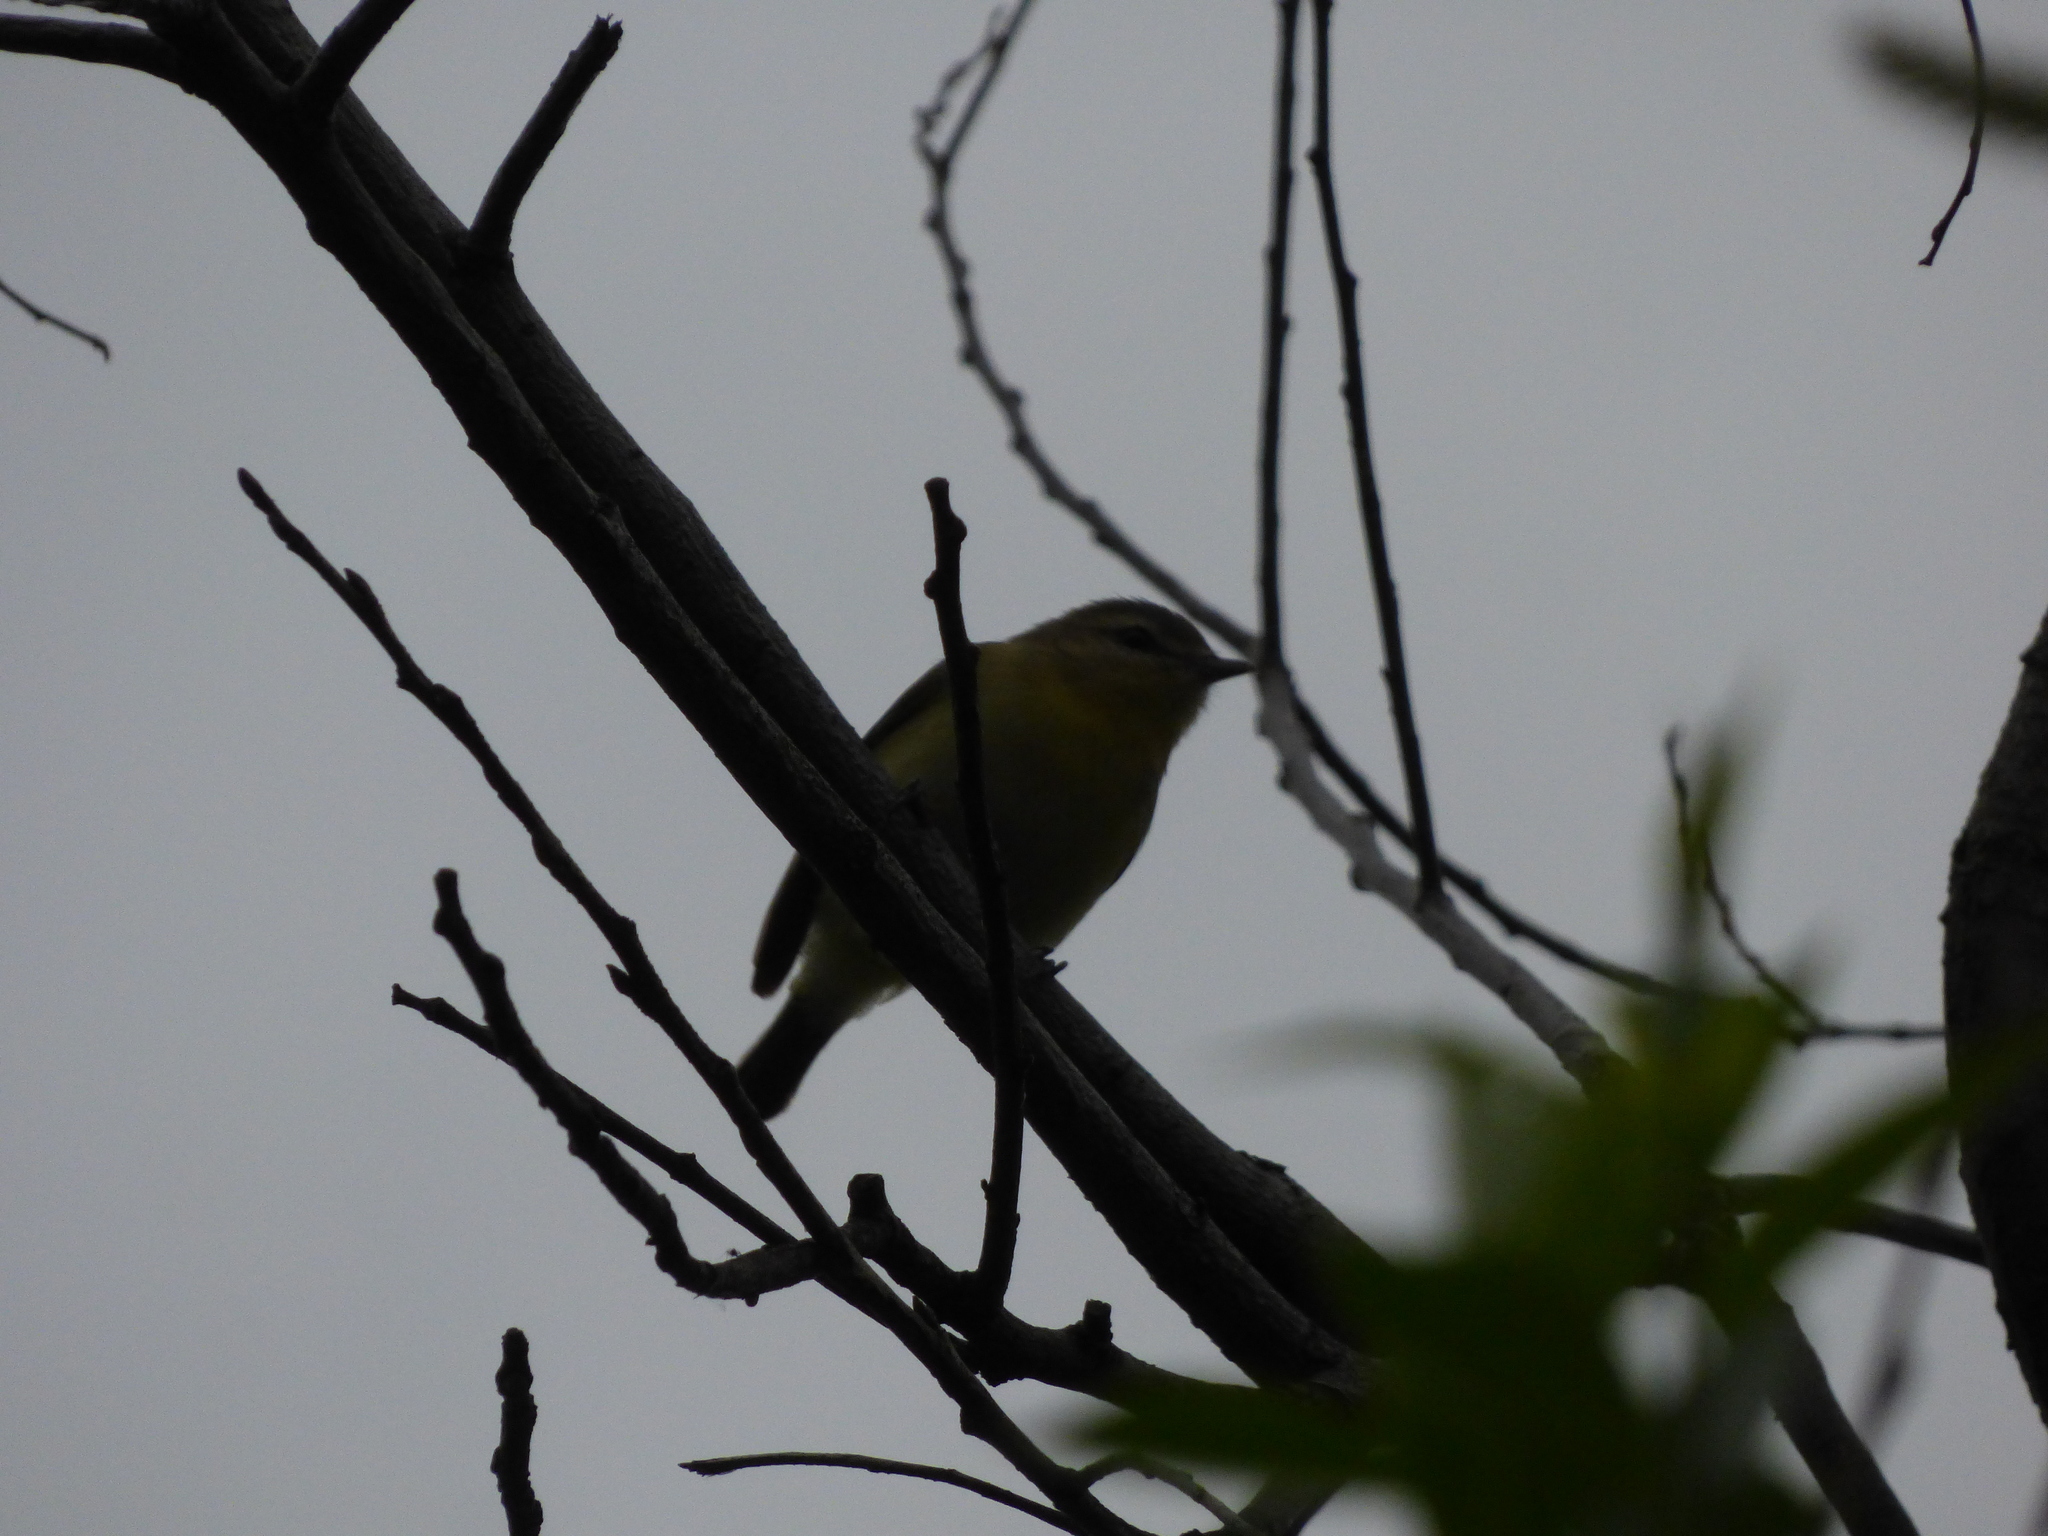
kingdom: Animalia
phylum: Chordata
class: Aves
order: Passeriformes
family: Vireonidae
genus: Vireo
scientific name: Vireo philadelphicus
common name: Philadelphia vireo
